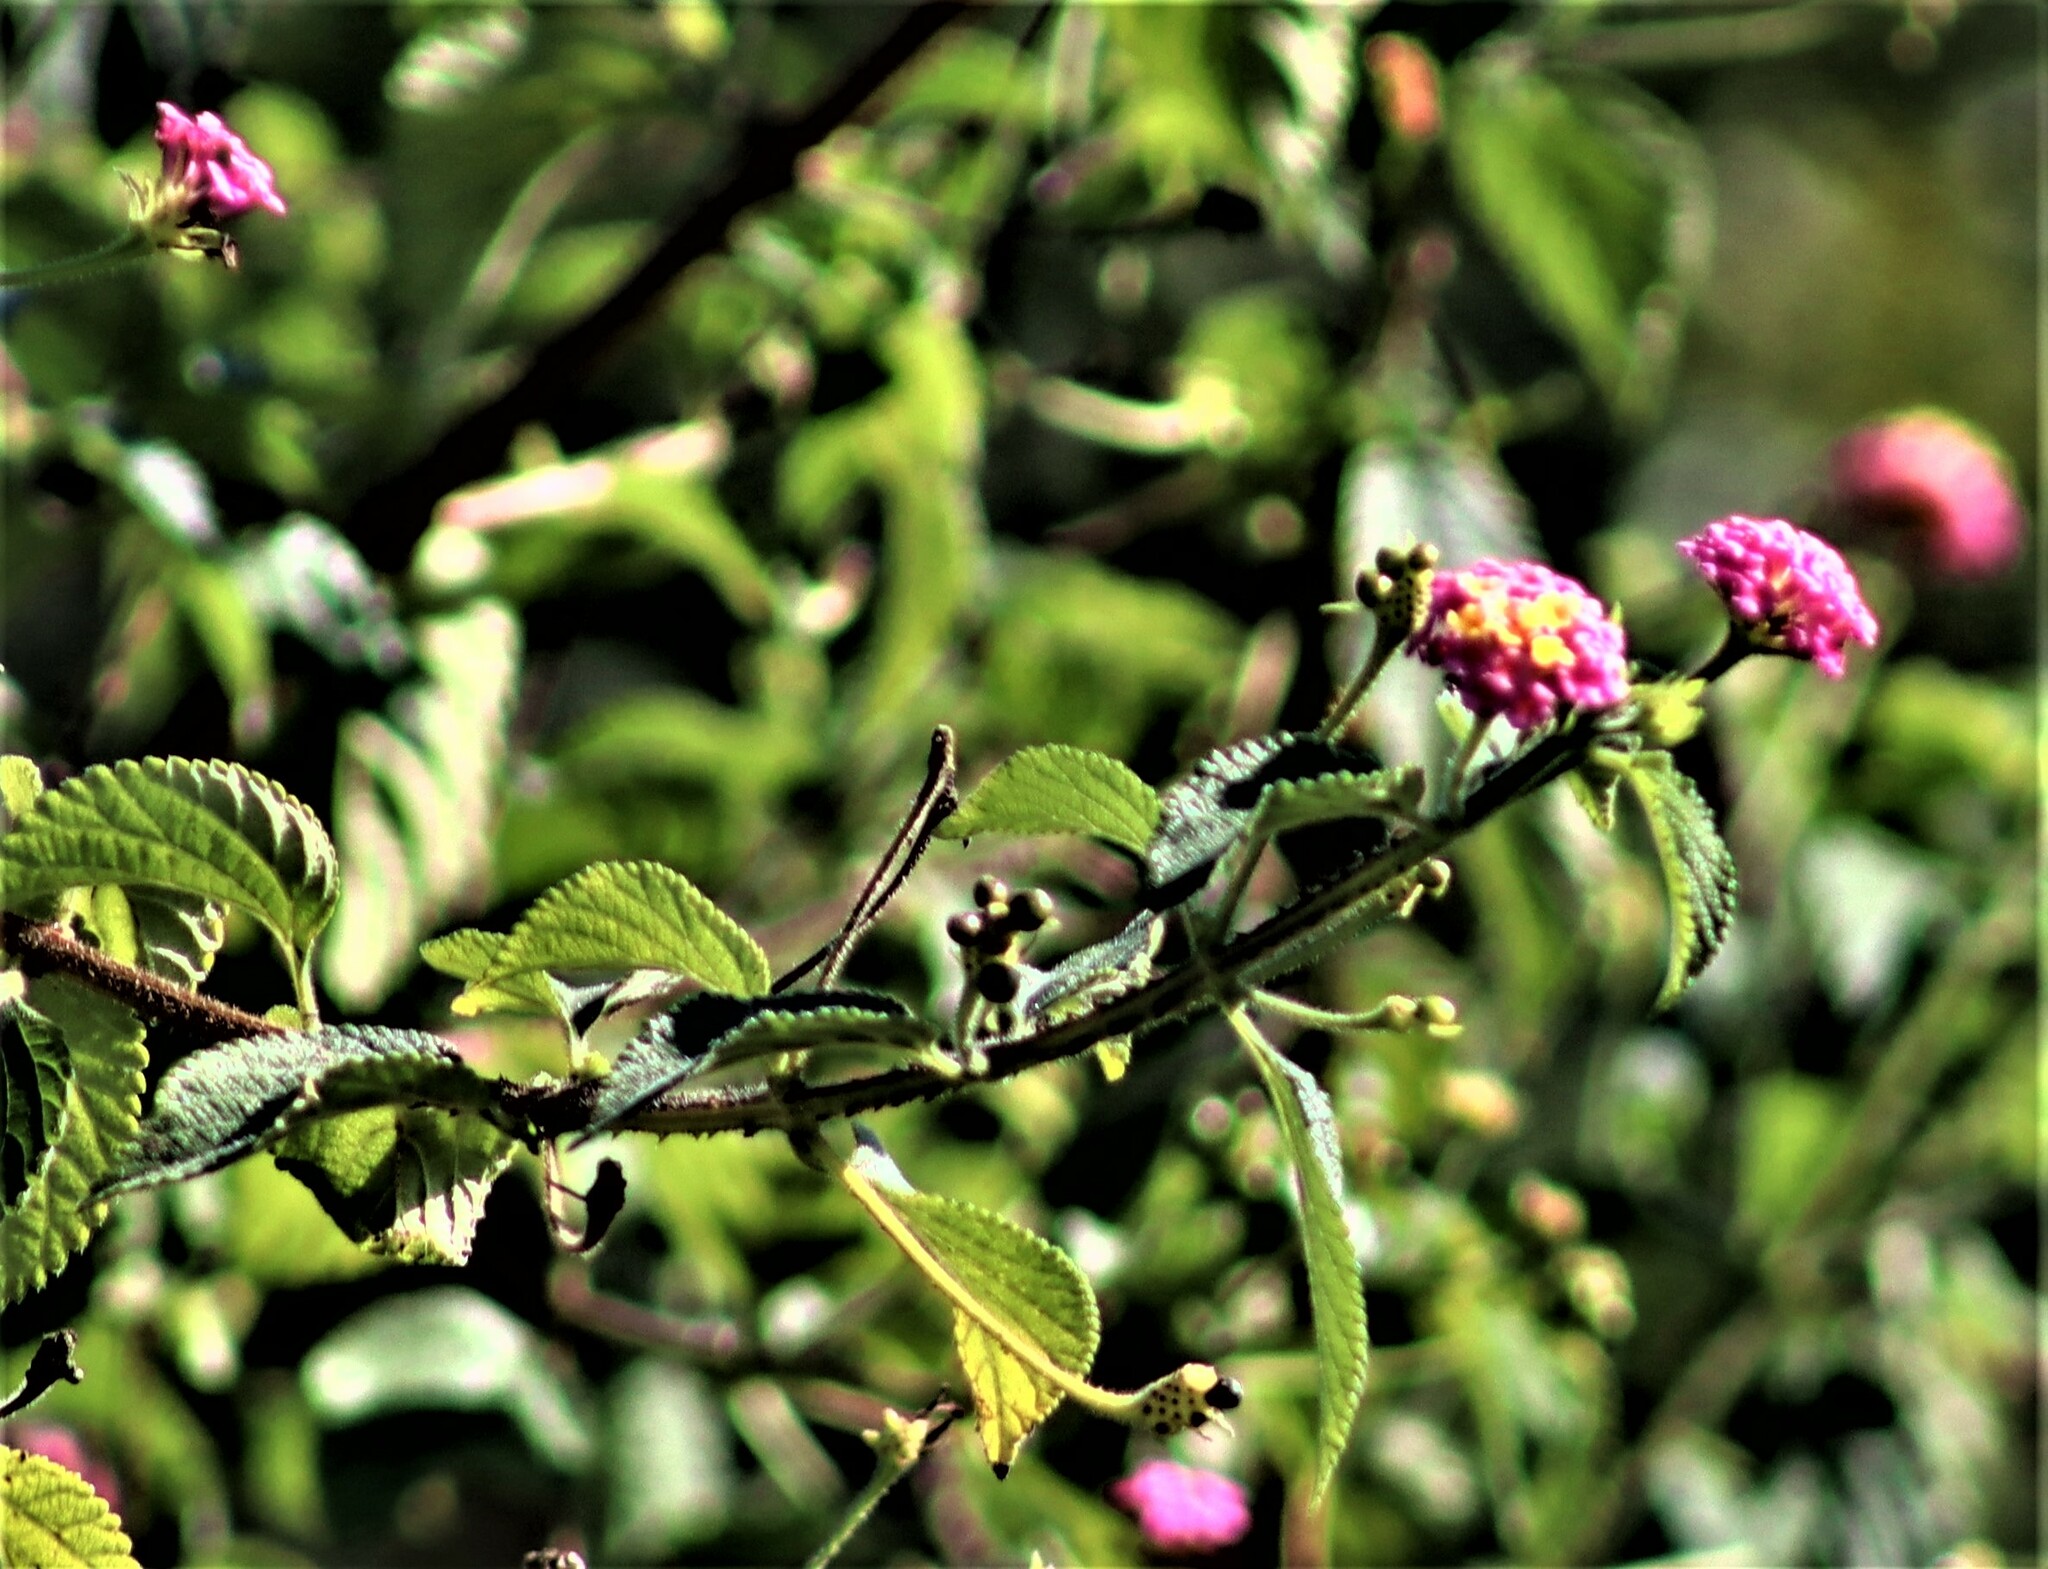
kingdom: Plantae
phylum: Tracheophyta
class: Magnoliopsida
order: Lamiales
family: Verbenaceae
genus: Lantana
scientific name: Lantana camara
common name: Lantana
